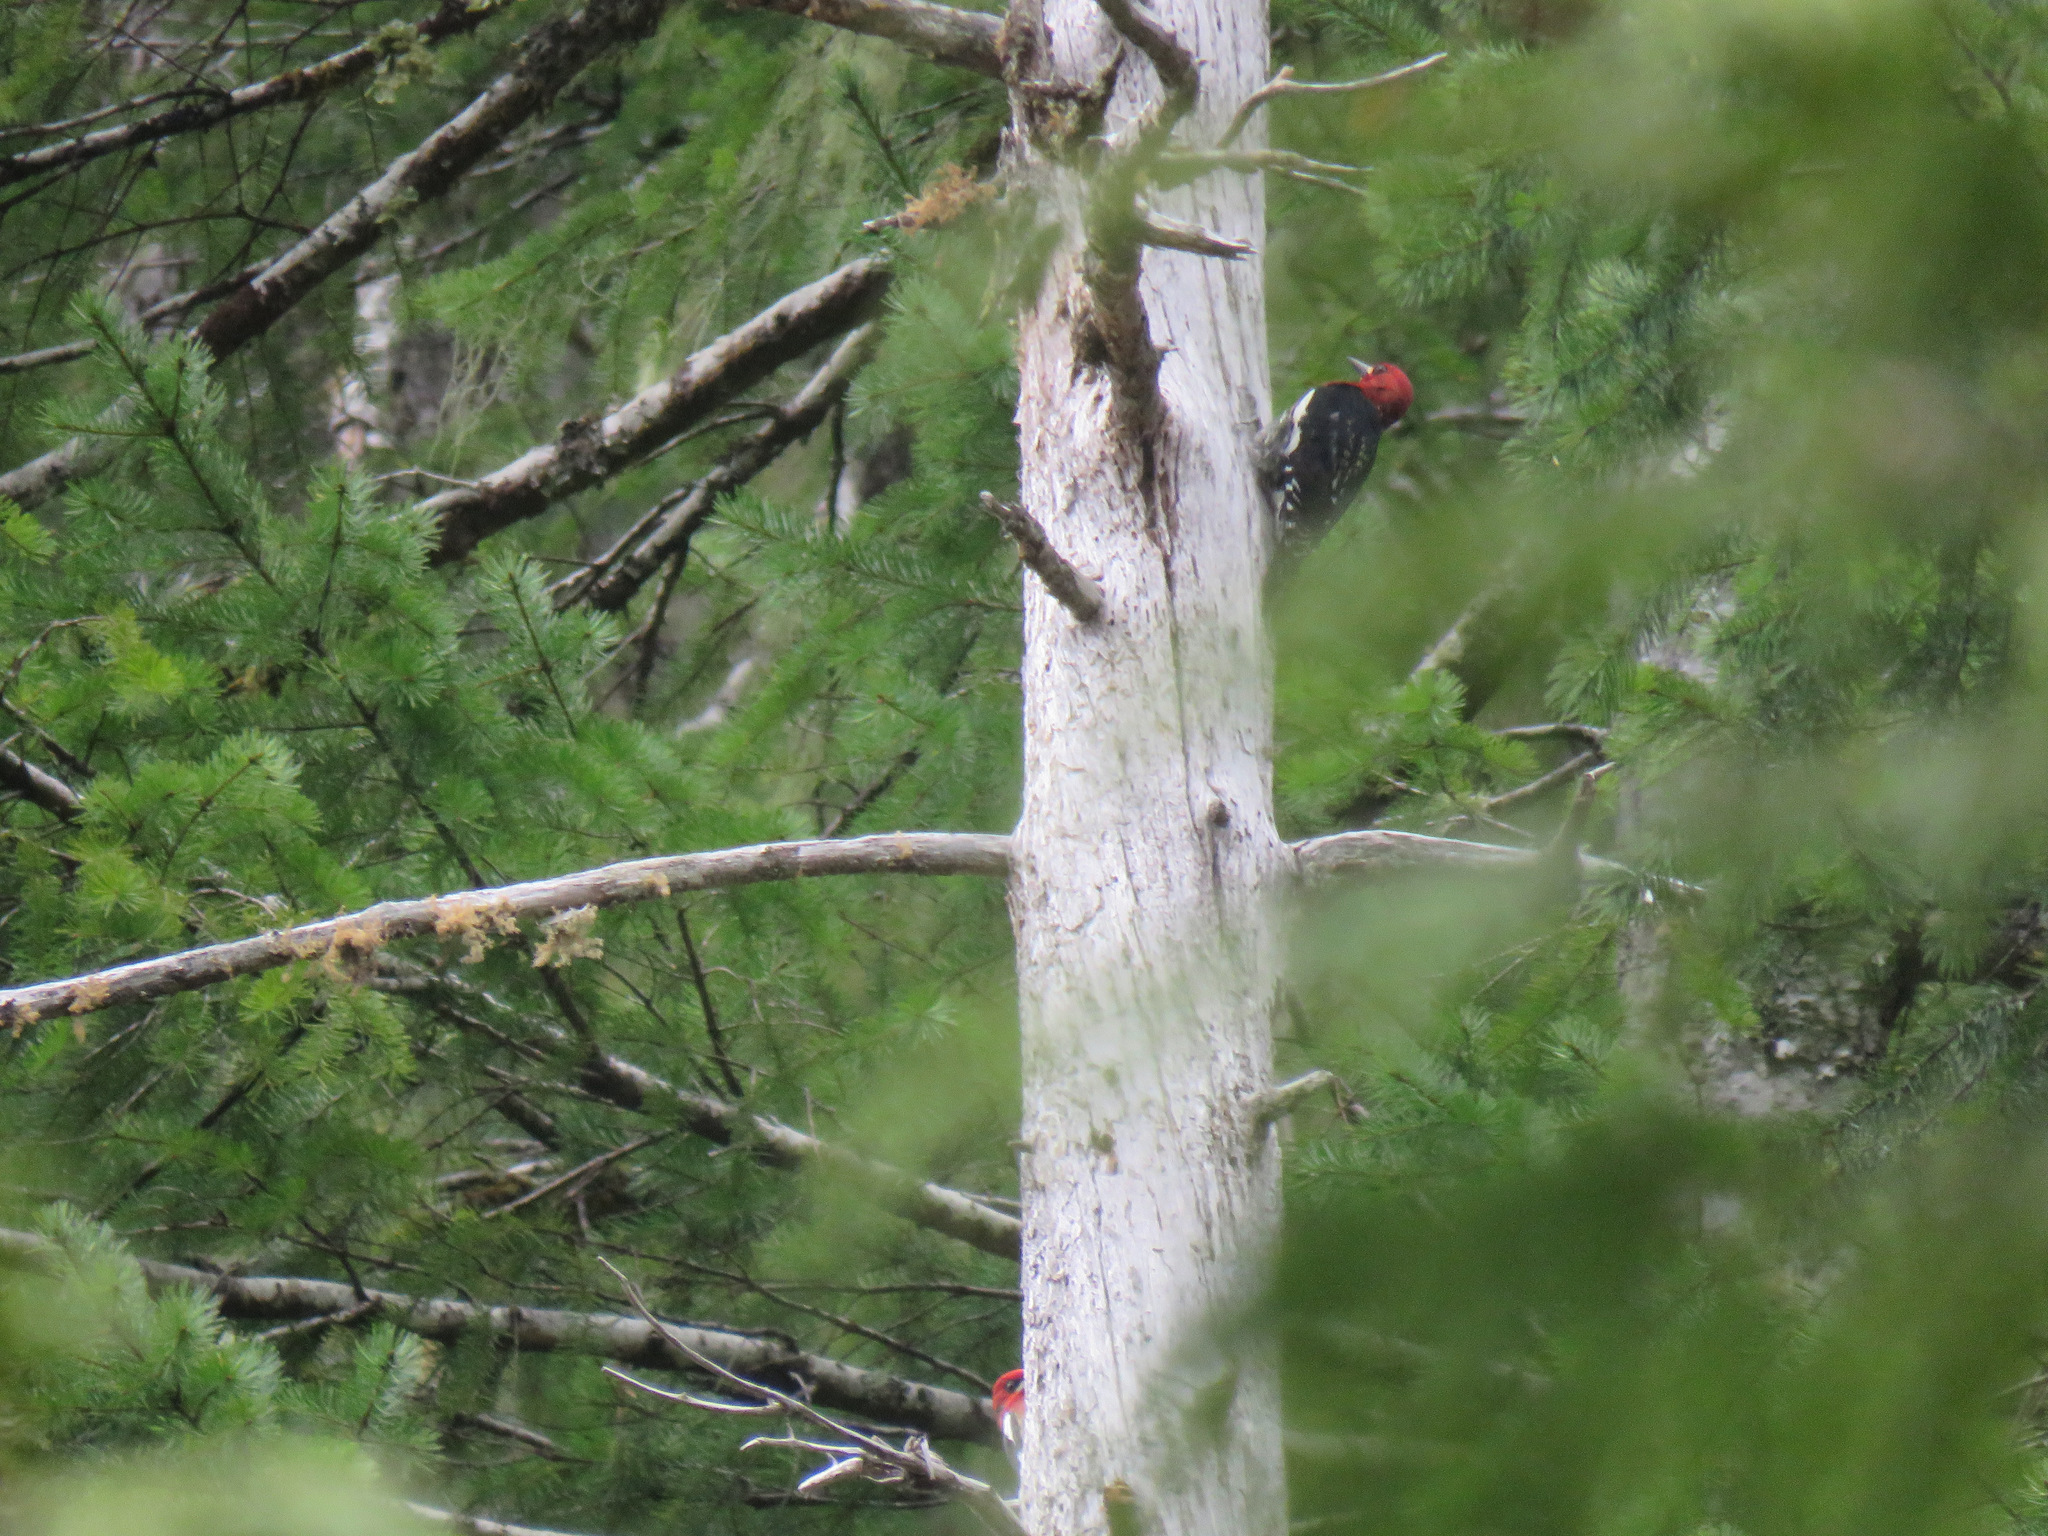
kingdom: Animalia
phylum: Chordata
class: Aves
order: Piciformes
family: Picidae
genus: Sphyrapicus
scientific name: Sphyrapicus ruber
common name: Red-breasted sapsucker
